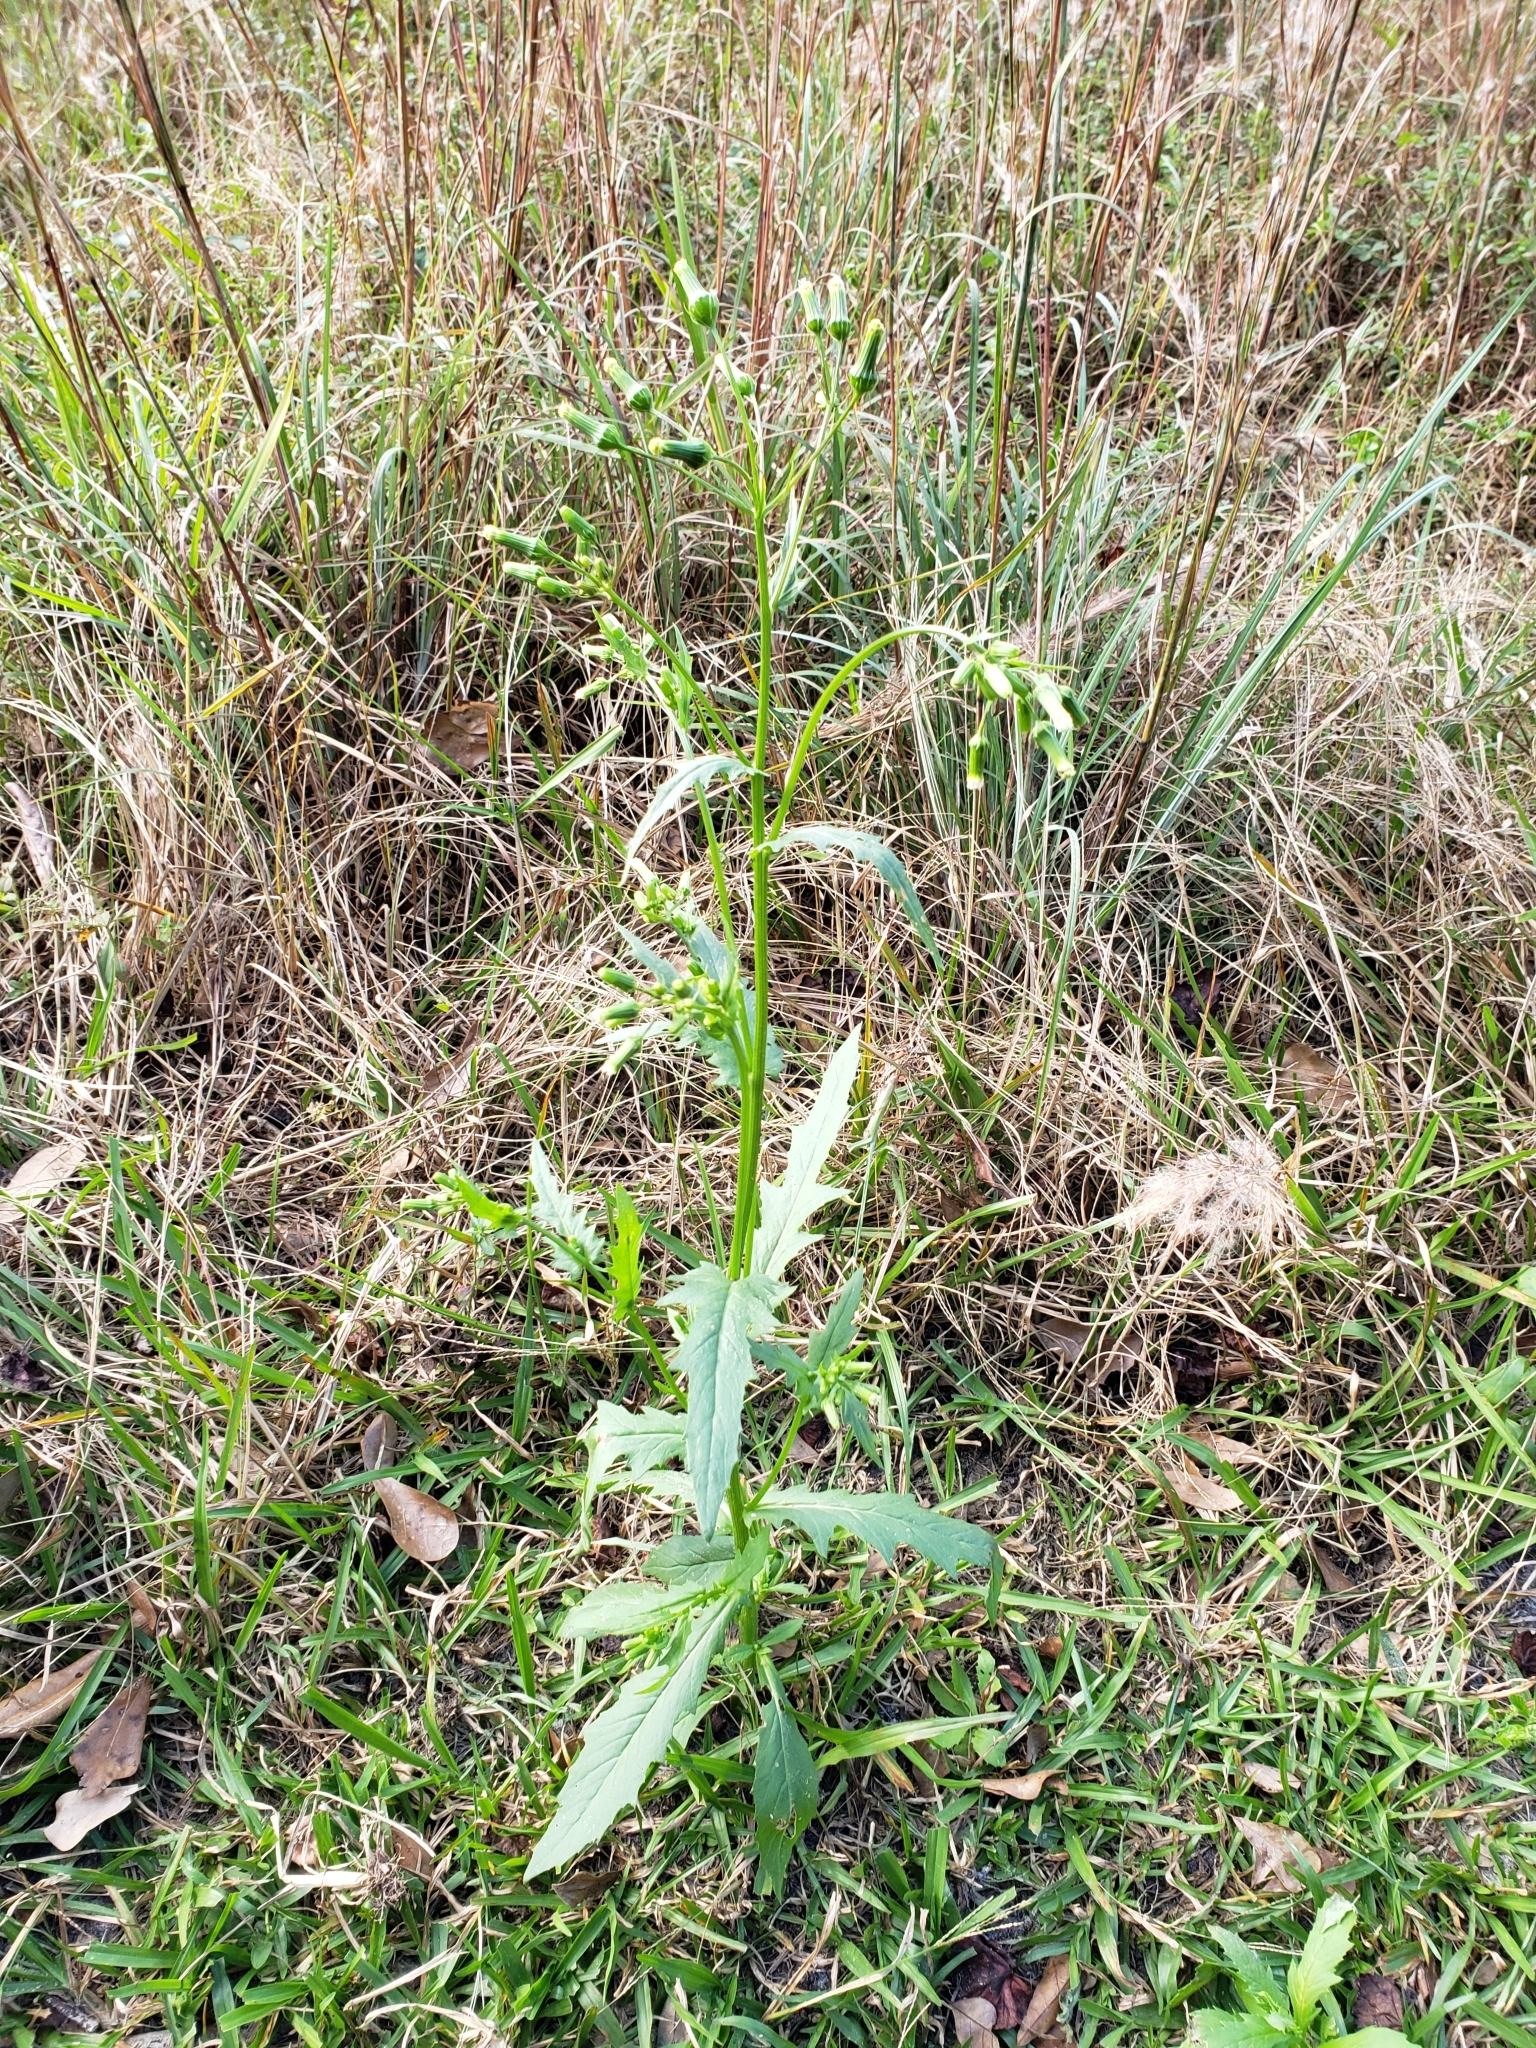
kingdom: Plantae
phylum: Tracheophyta
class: Magnoliopsida
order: Asterales
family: Asteraceae
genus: Erechtites
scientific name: Erechtites hieraciifolius
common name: American burnweed
